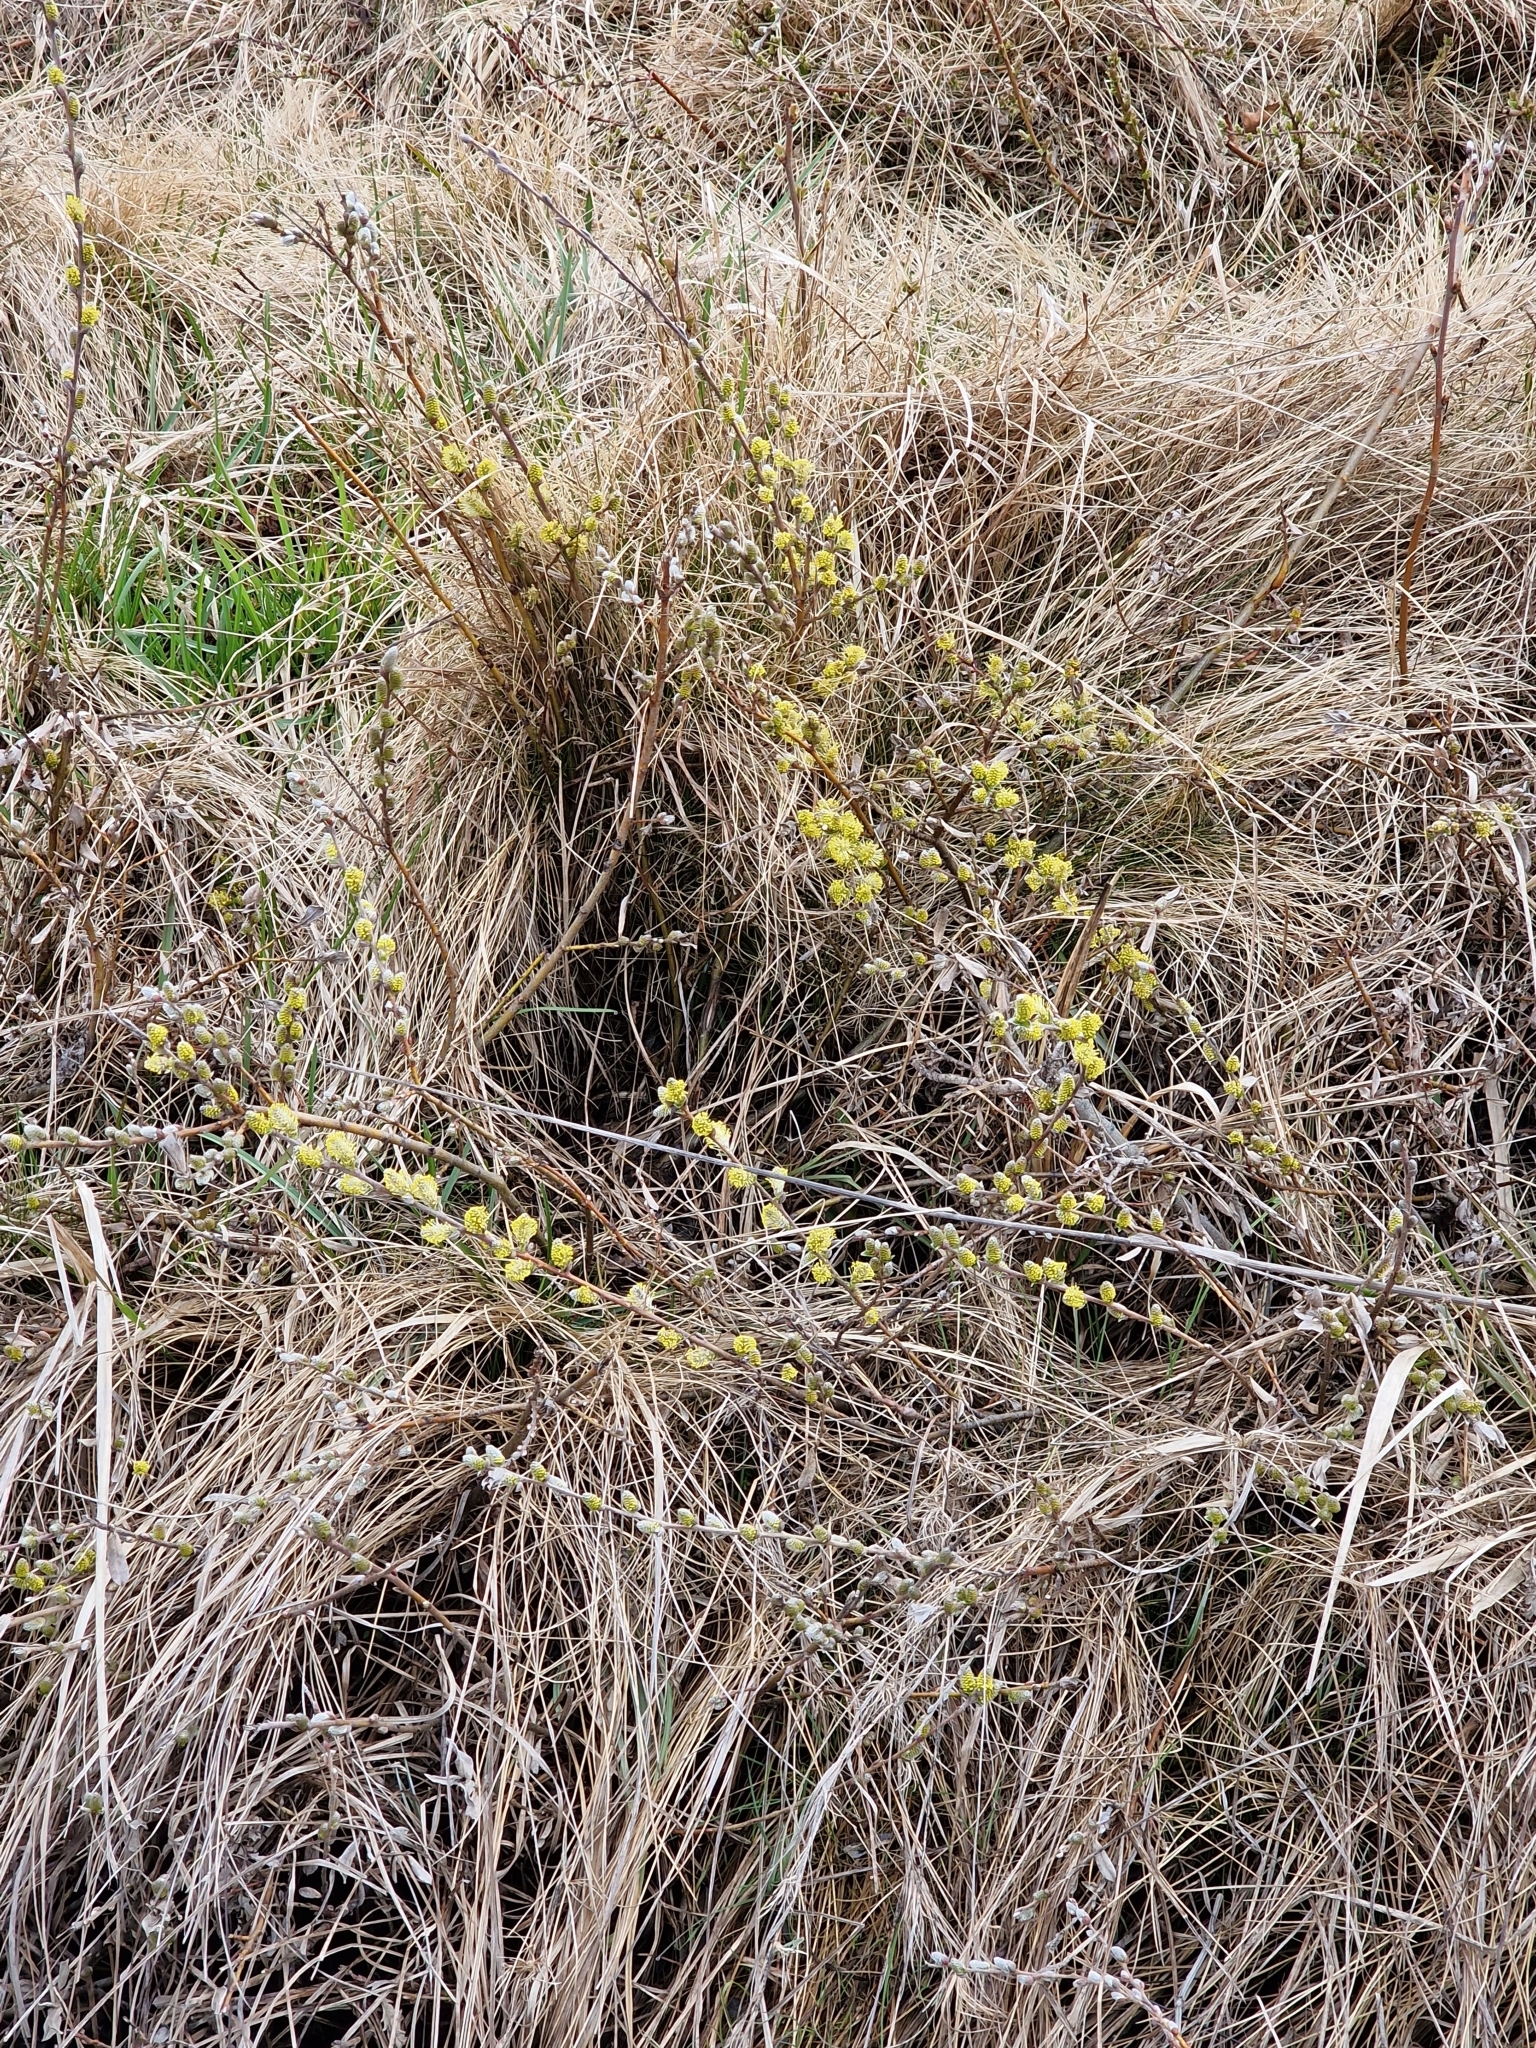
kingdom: Plantae
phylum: Tracheophyta
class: Magnoliopsida
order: Malpighiales
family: Salicaceae
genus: Salix
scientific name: Salix repens
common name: Creeping willow
